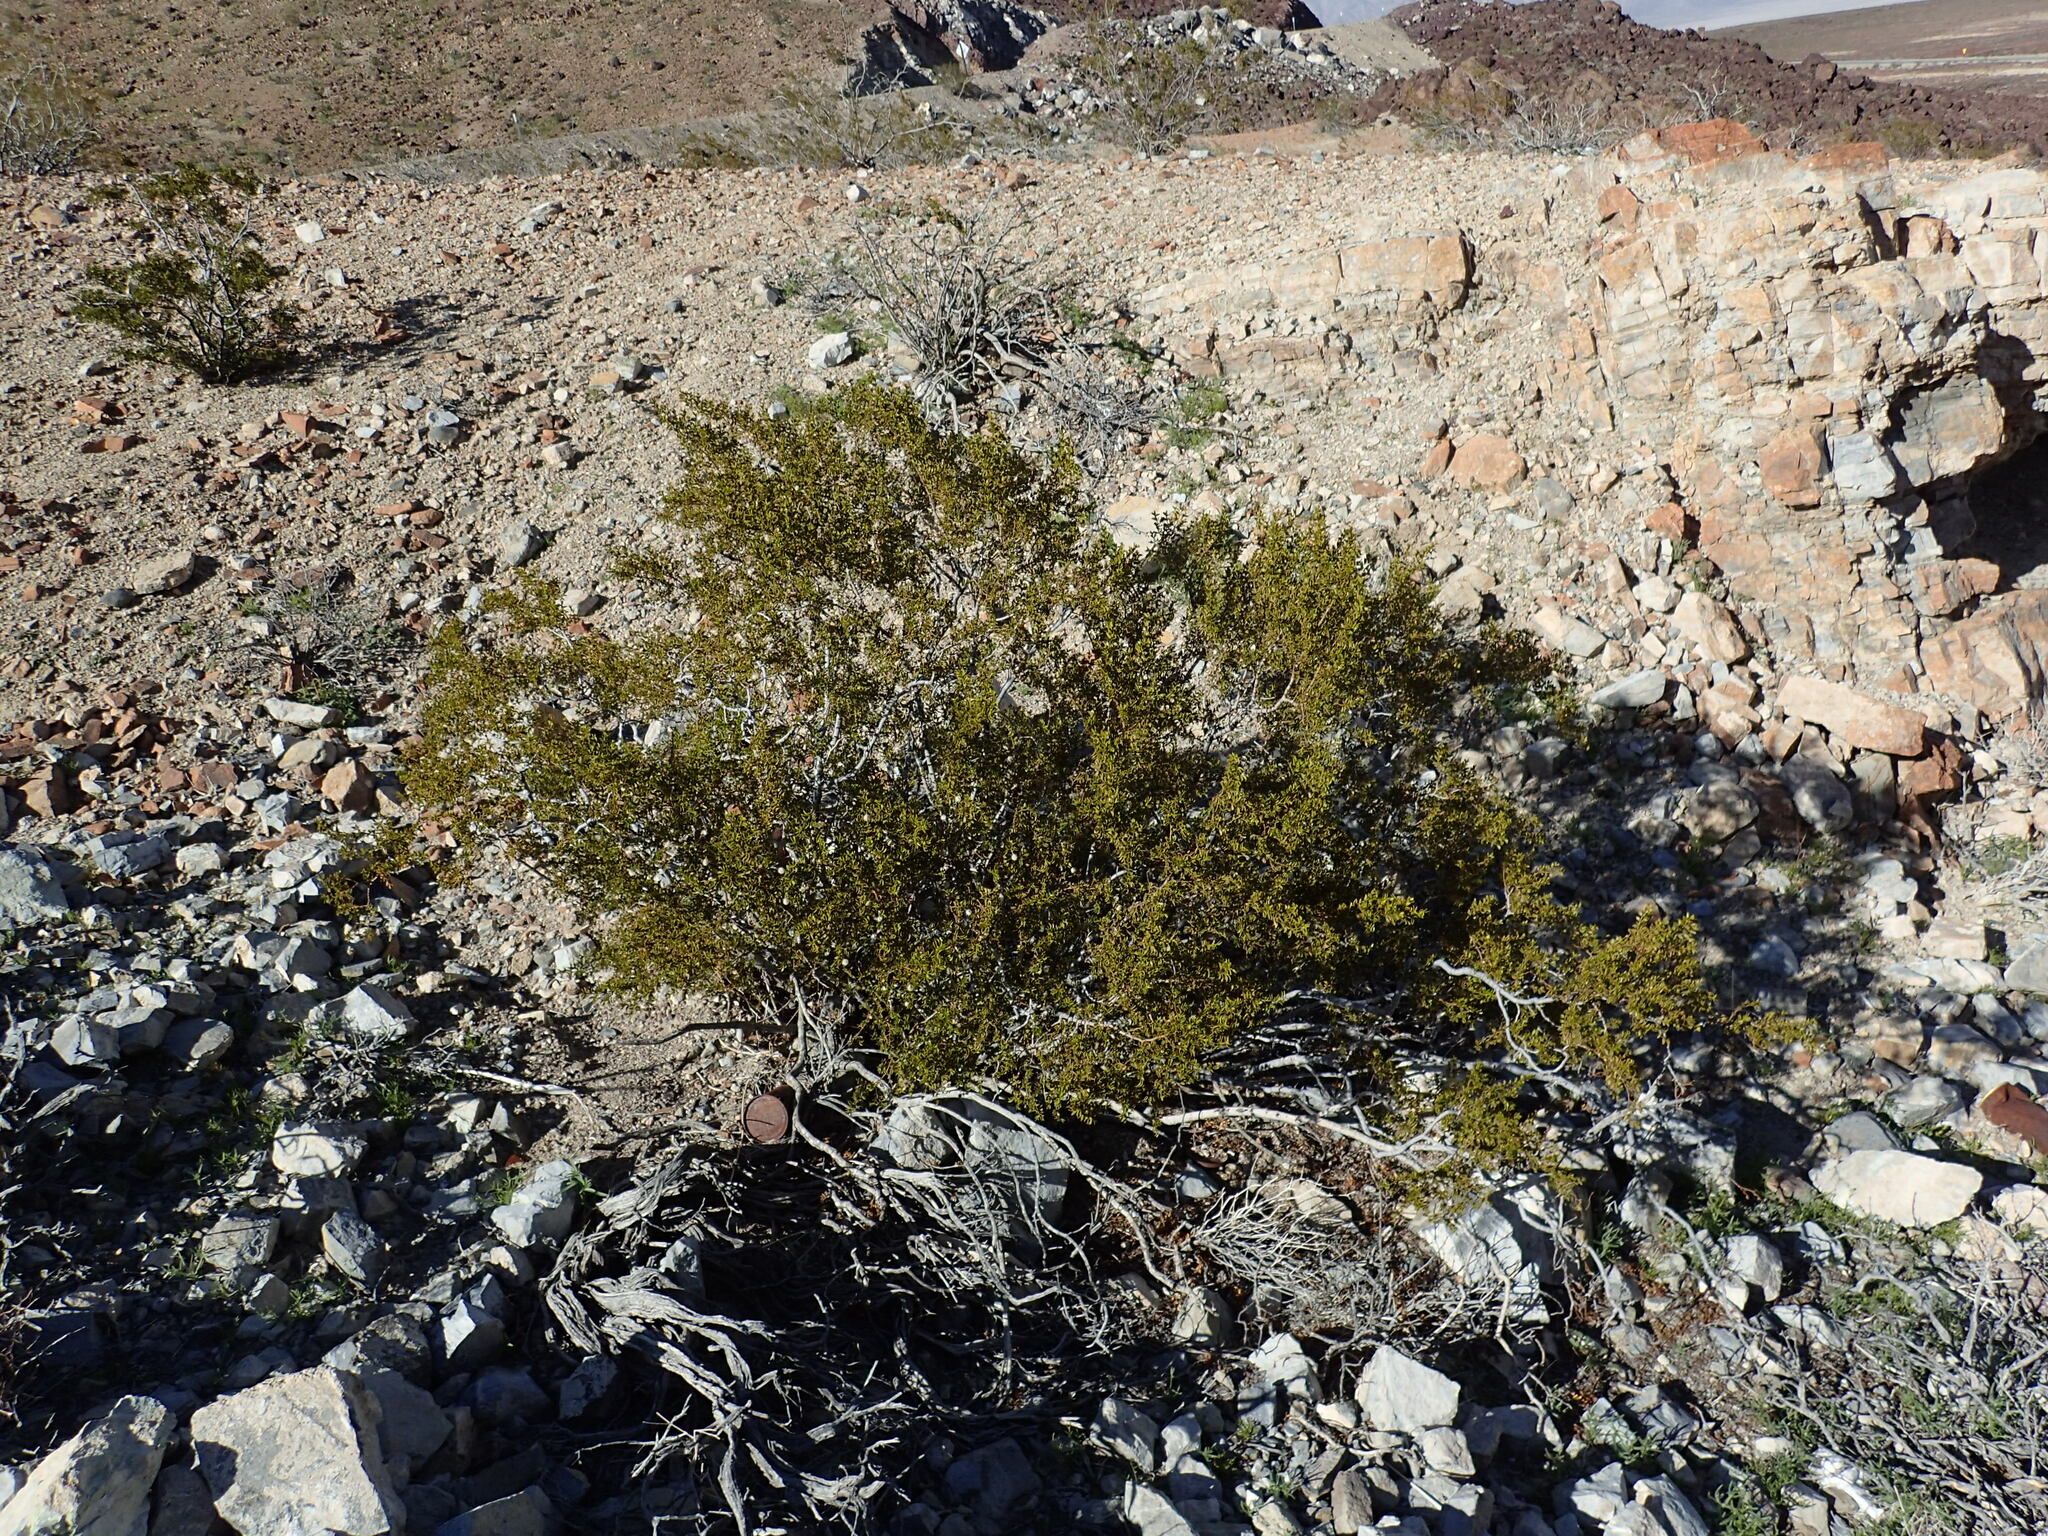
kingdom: Plantae
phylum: Tracheophyta
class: Magnoliopsida
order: Zygophyllales
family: Zygophyllaceae
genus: Larrea
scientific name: Larrea tridentata
